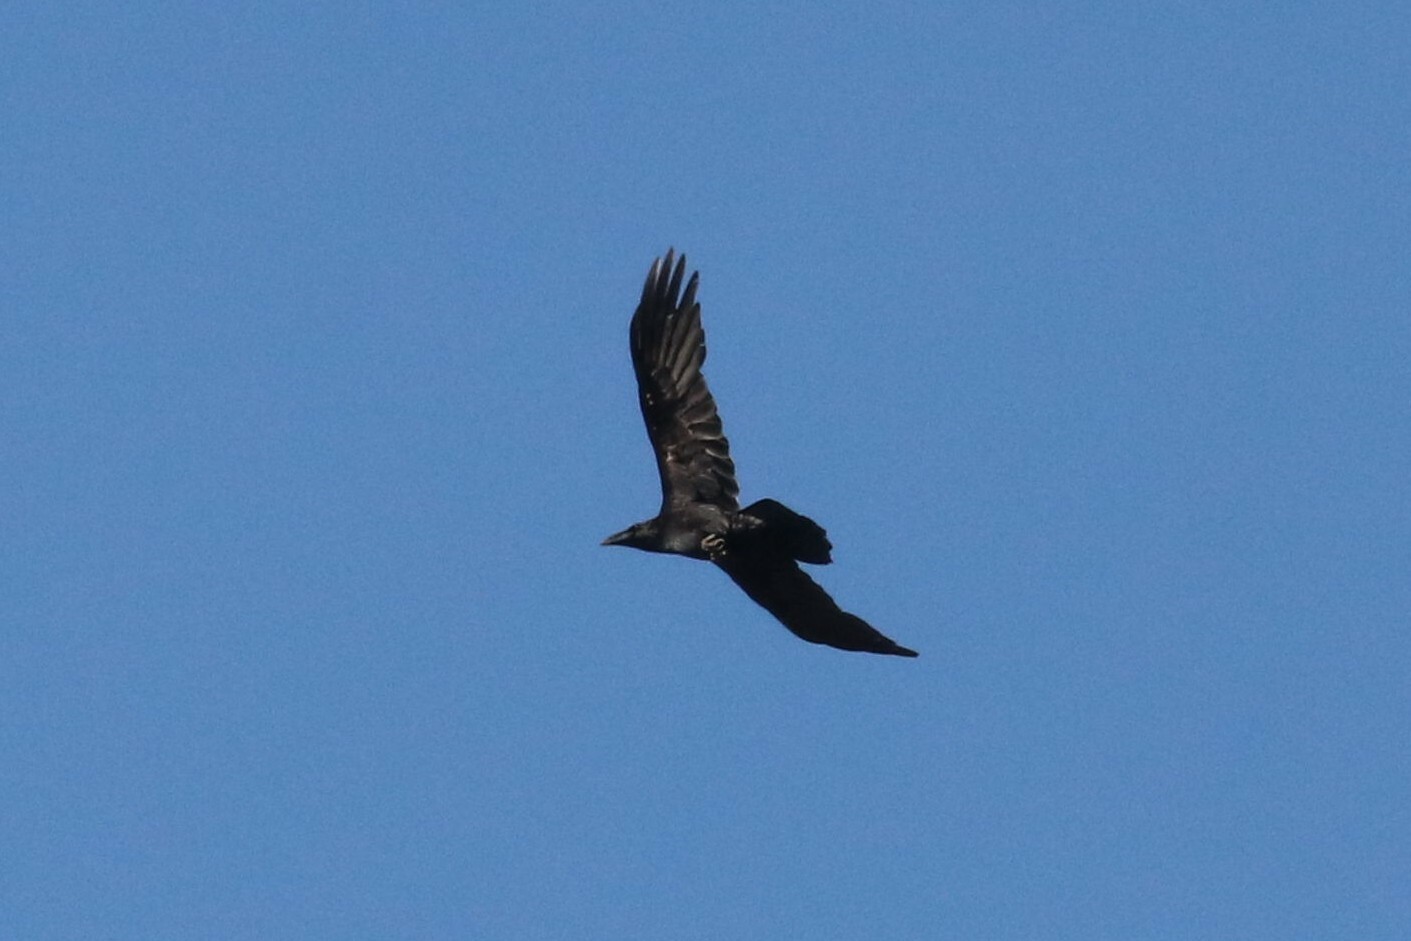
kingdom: Animalia
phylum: Chordata
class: Aves
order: Passeriformes
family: Corvidae
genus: Corvus
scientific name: Corvus corax
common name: Common raven
